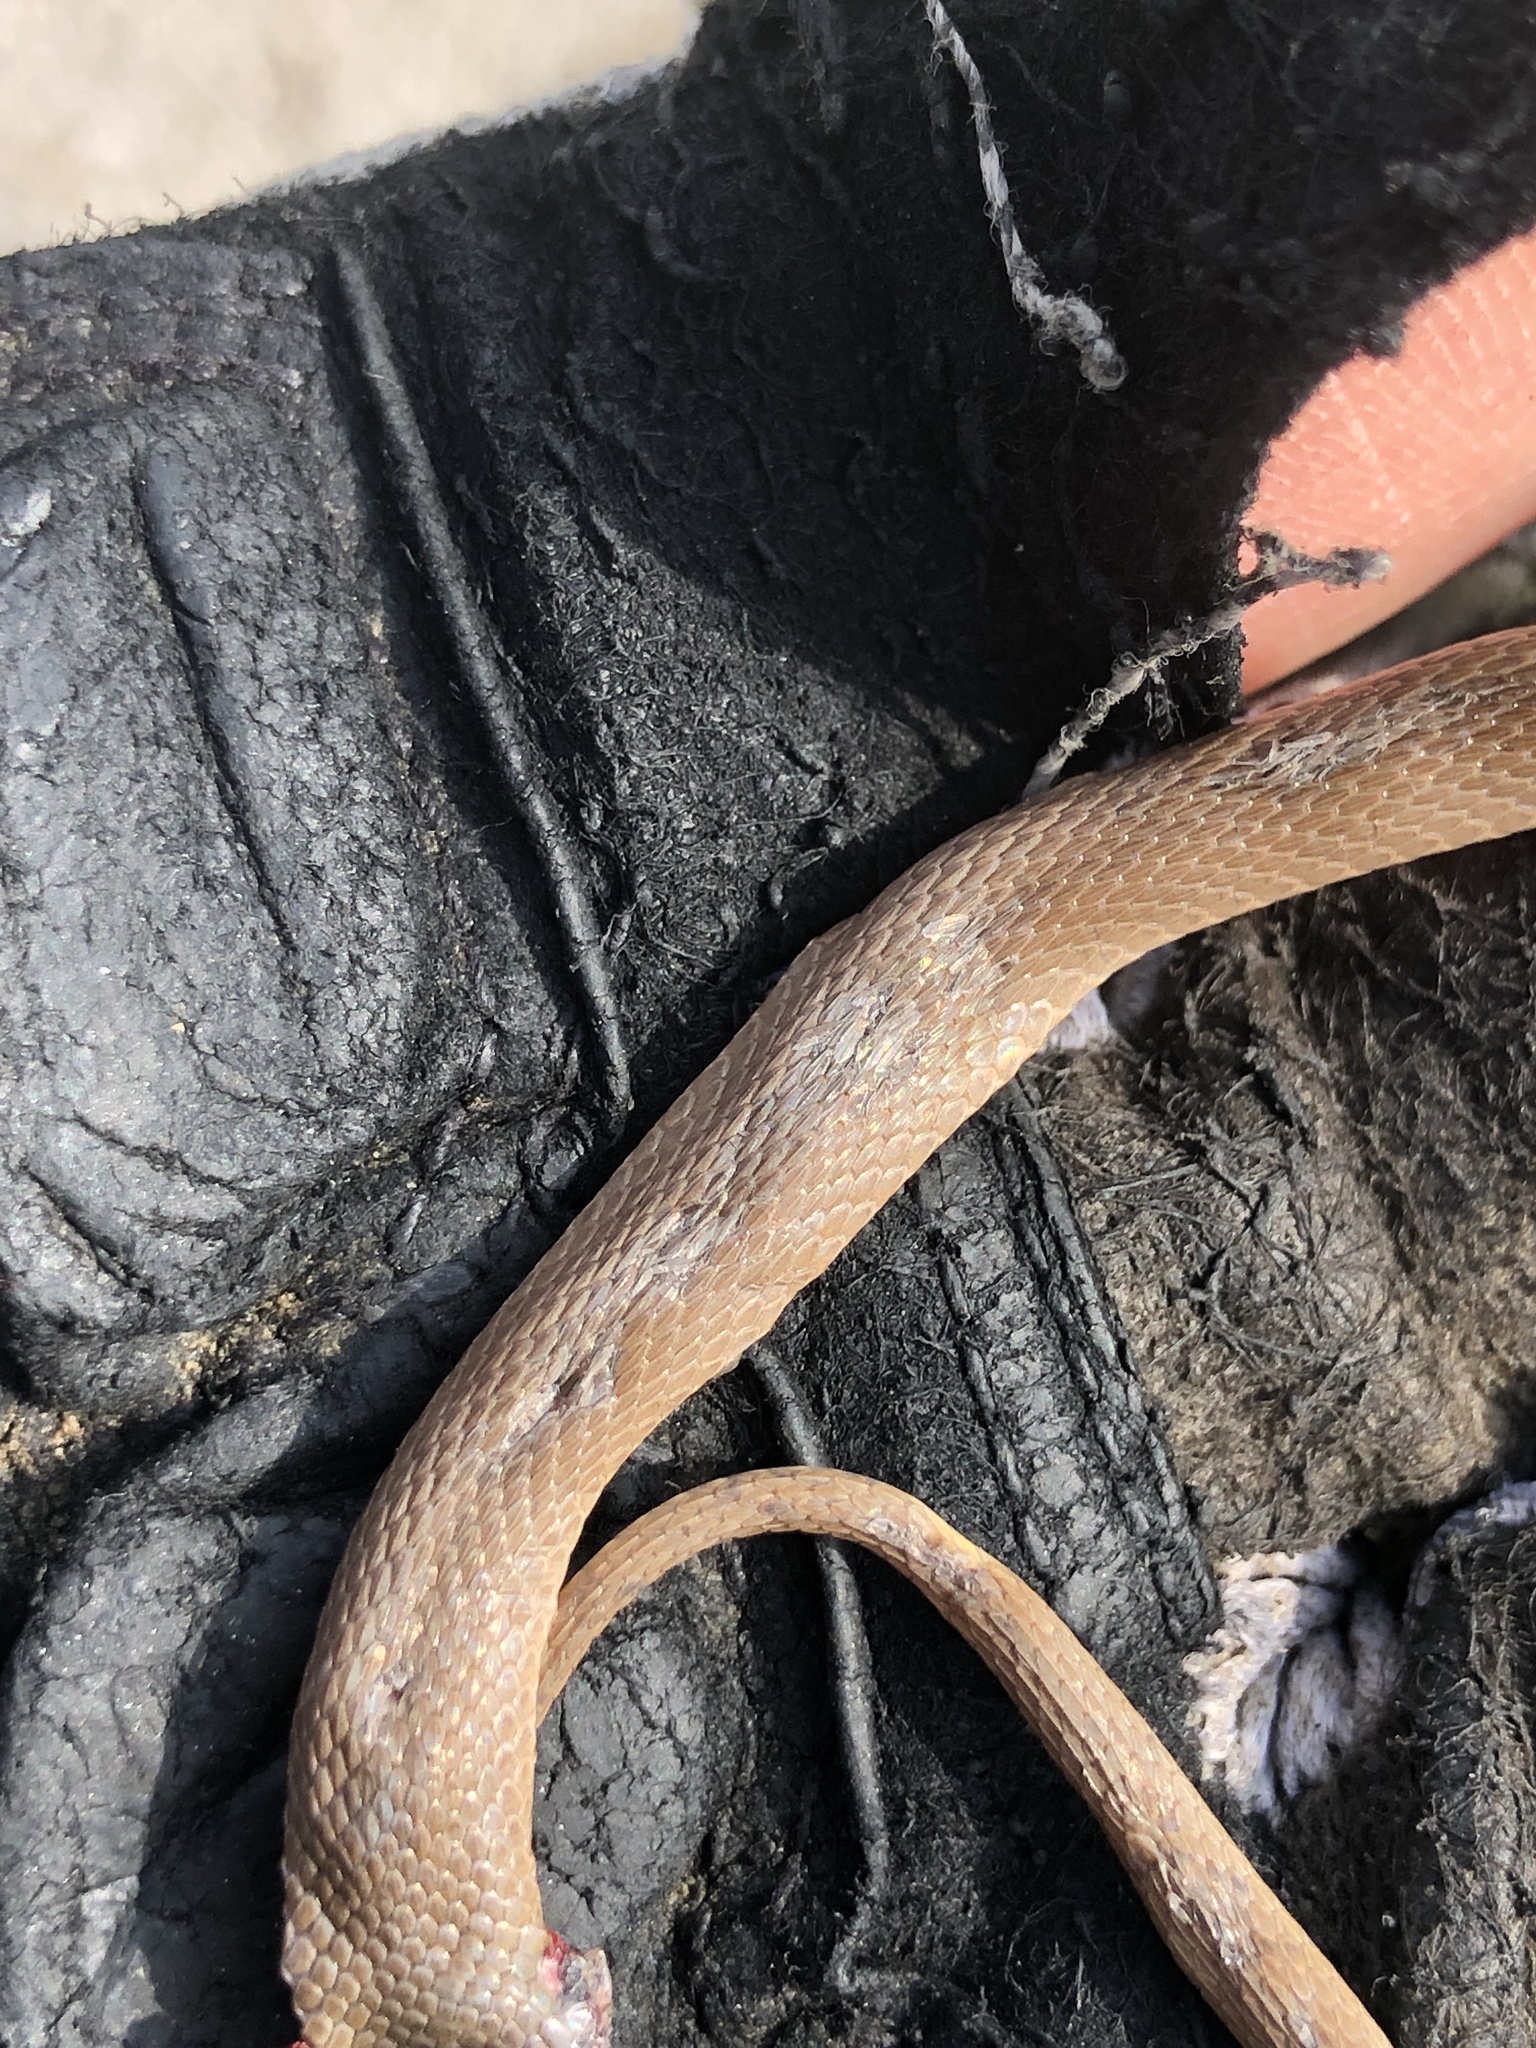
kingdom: Animalia
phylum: Chordata
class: Squamata
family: Colubridae
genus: Haldea
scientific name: Haldea striatula
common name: Rough earth snake
